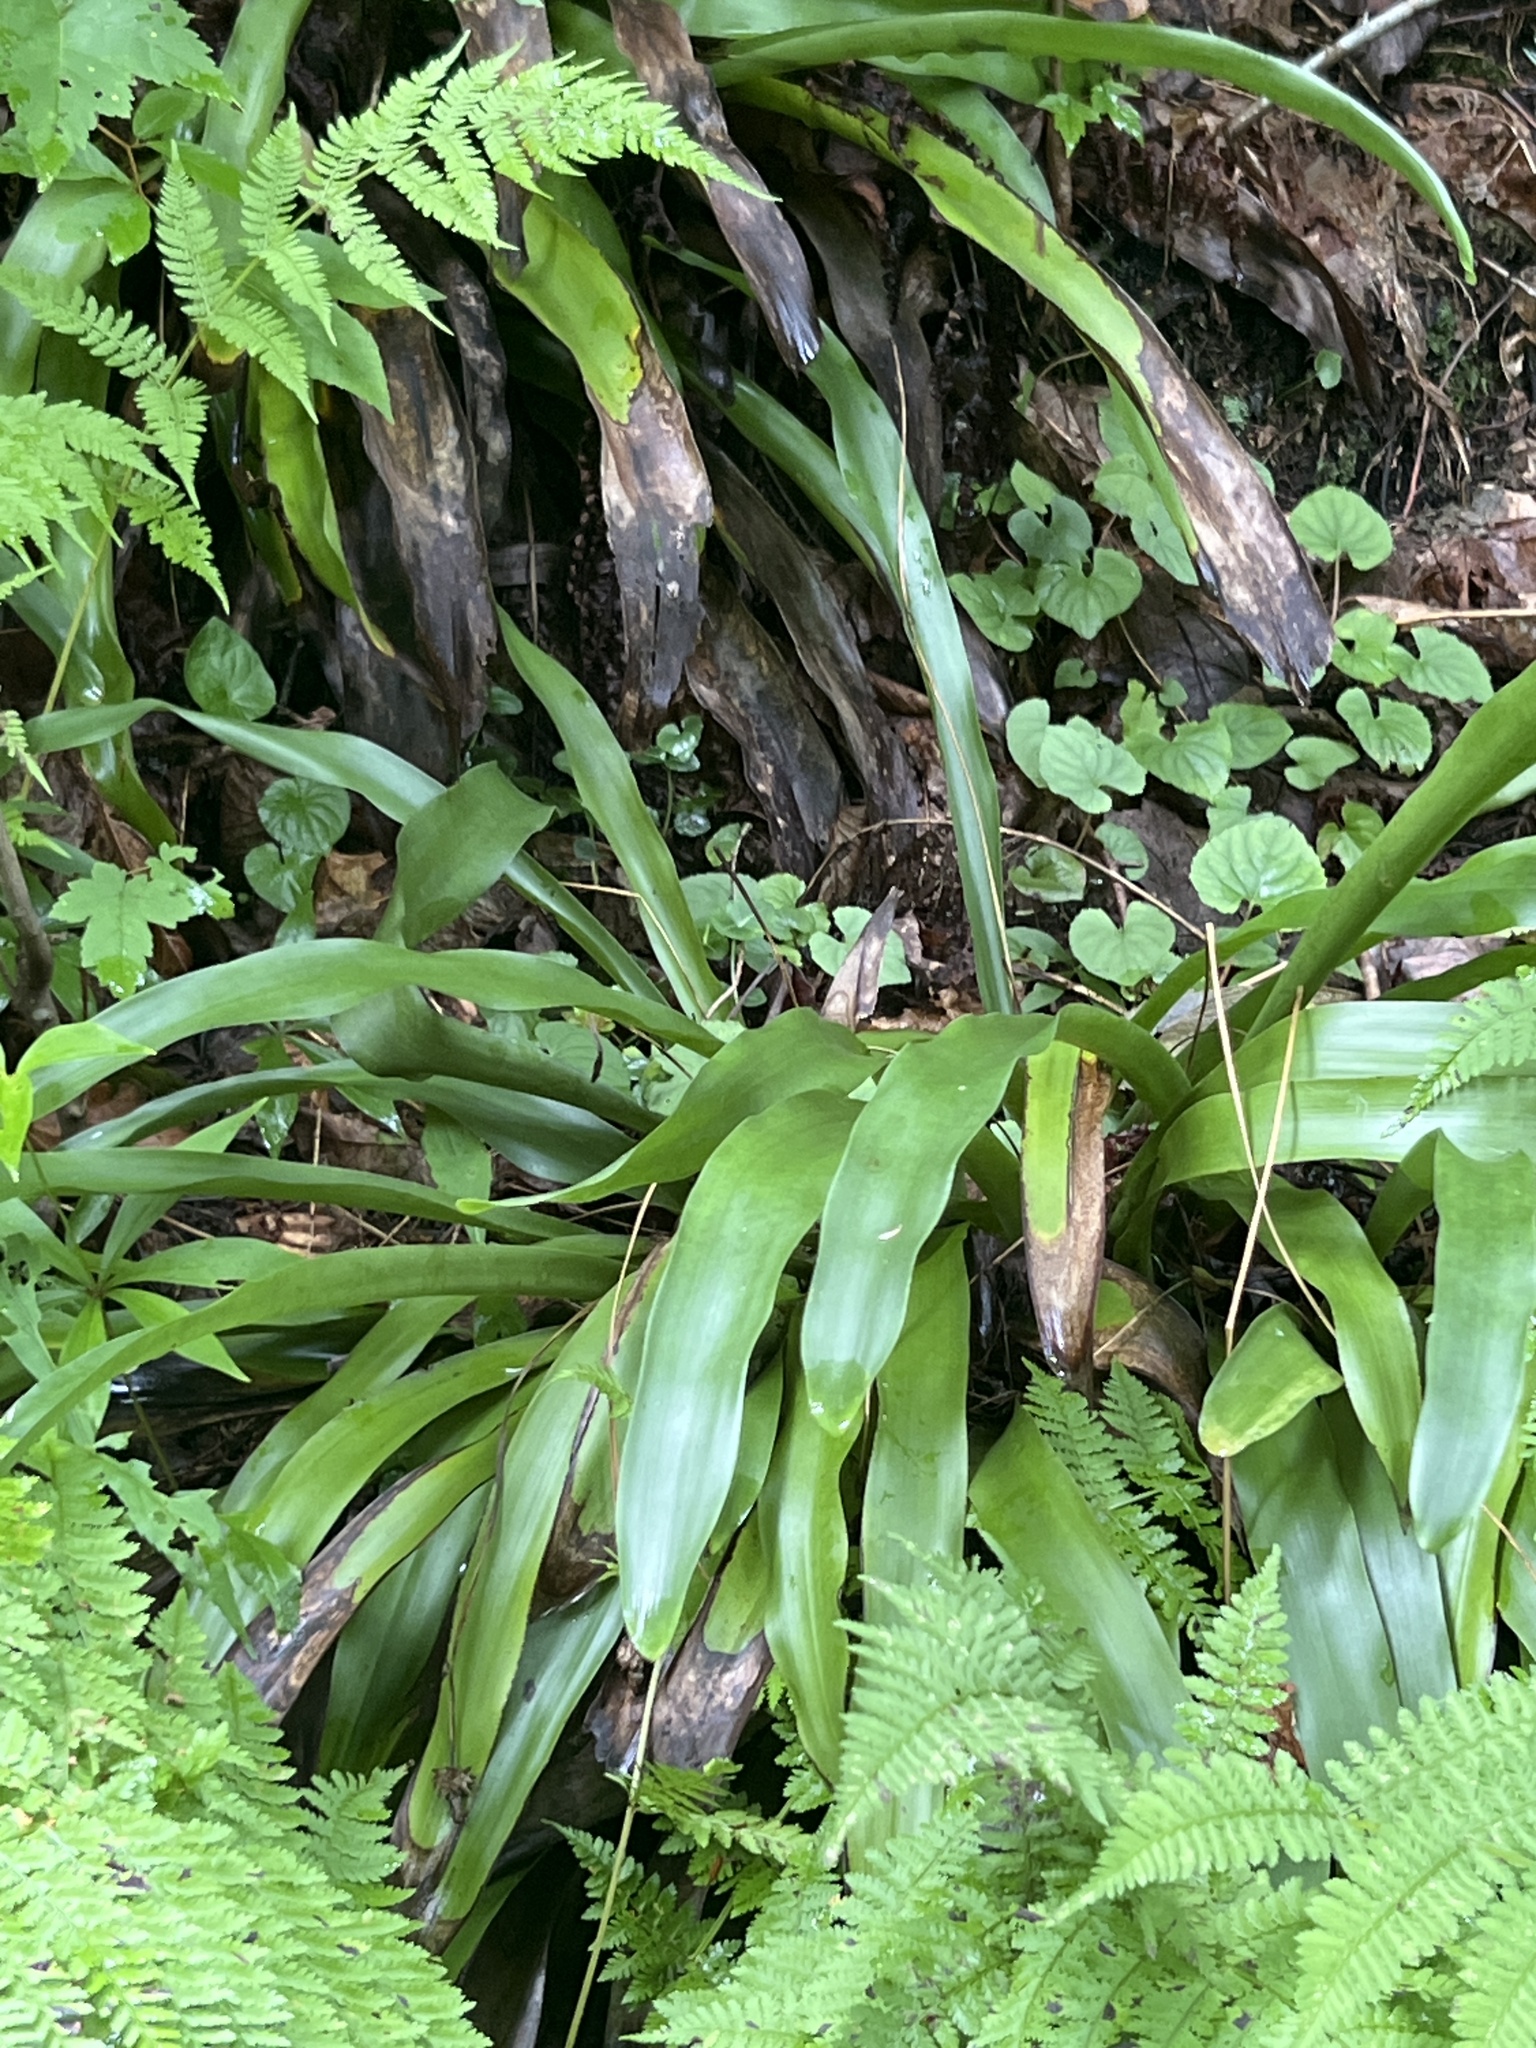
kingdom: Plantae
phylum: Tracheophyta
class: Liliopsida
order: Poales
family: Cyperaceae
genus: Carex
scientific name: Carex fraseriana
